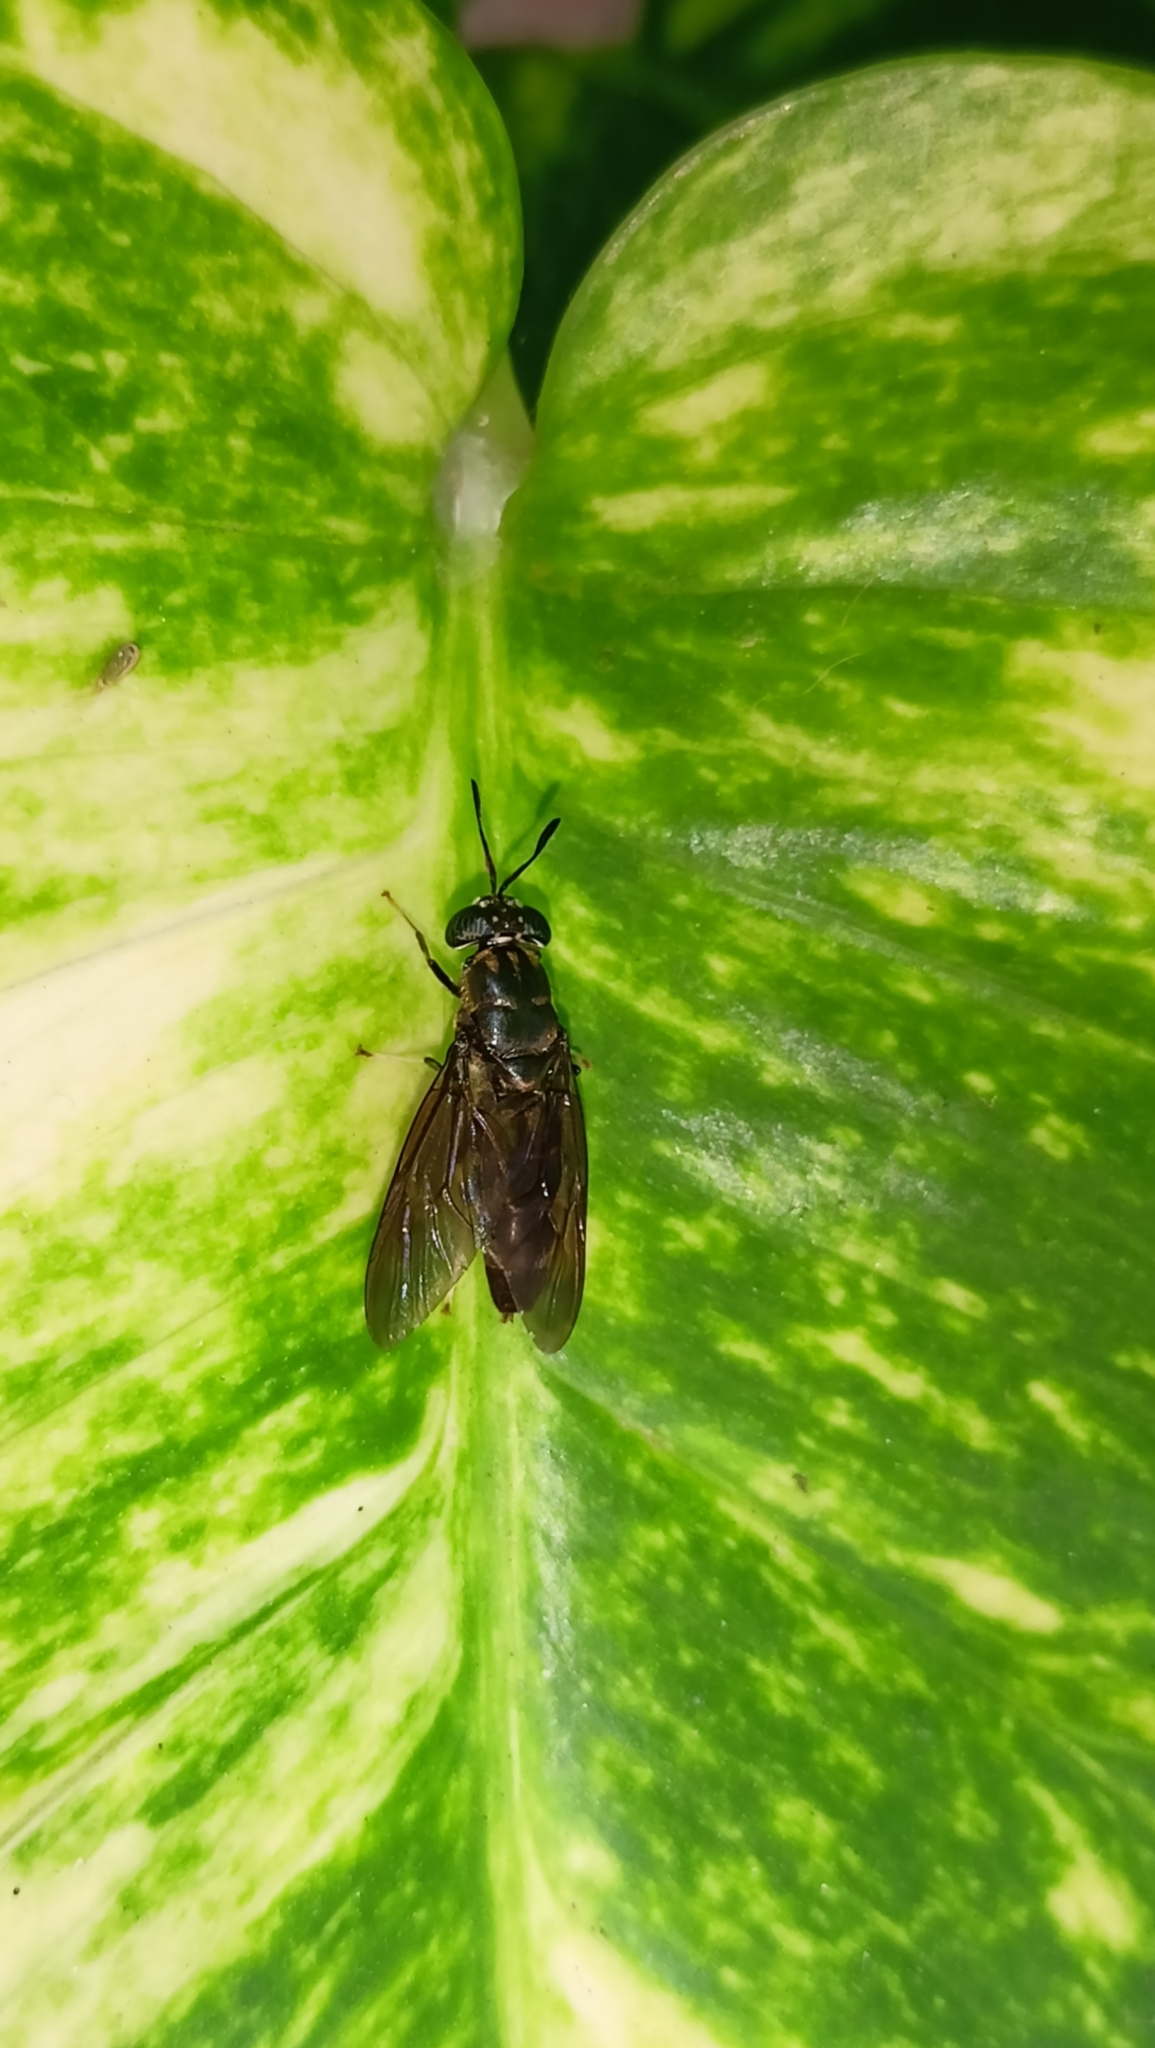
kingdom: Animalia
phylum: Arthropoda
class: Insecta
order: Diptera
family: Stratiomyidae
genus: Hermetia
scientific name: Hermetia illucens
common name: Black soldier fly
